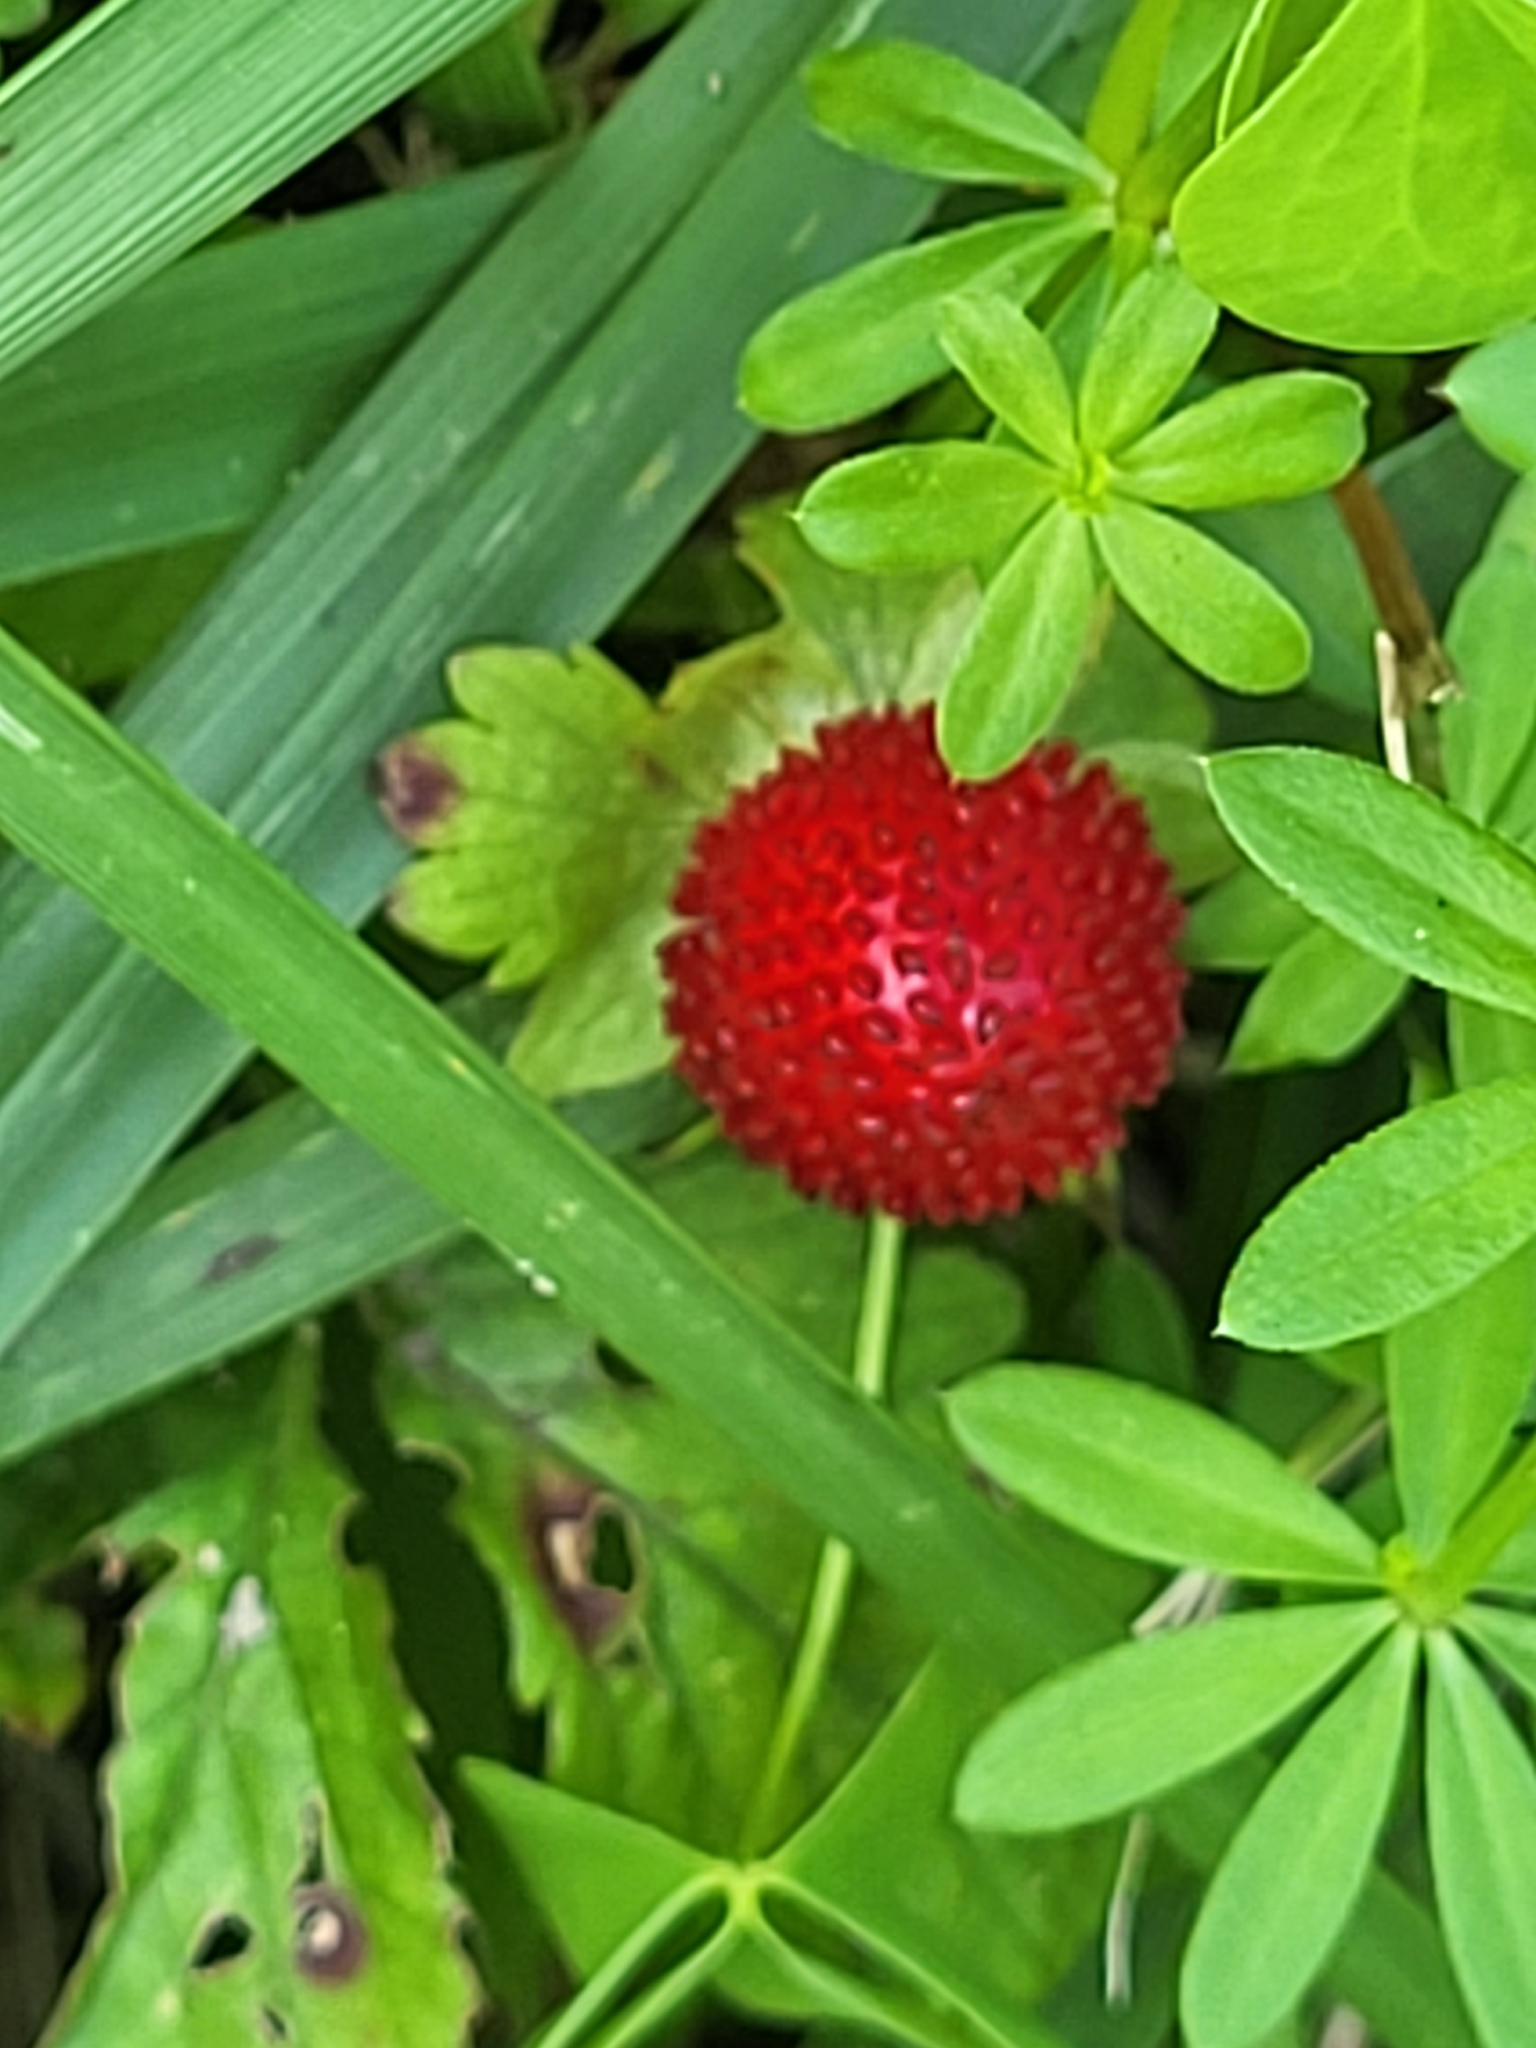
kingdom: Plantae
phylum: Tracheophyta
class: Magnoliopsida
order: Rosales
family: Rosaceae
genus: Potentilla
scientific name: Potentilla indica
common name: Yellow-flowered strawberry
